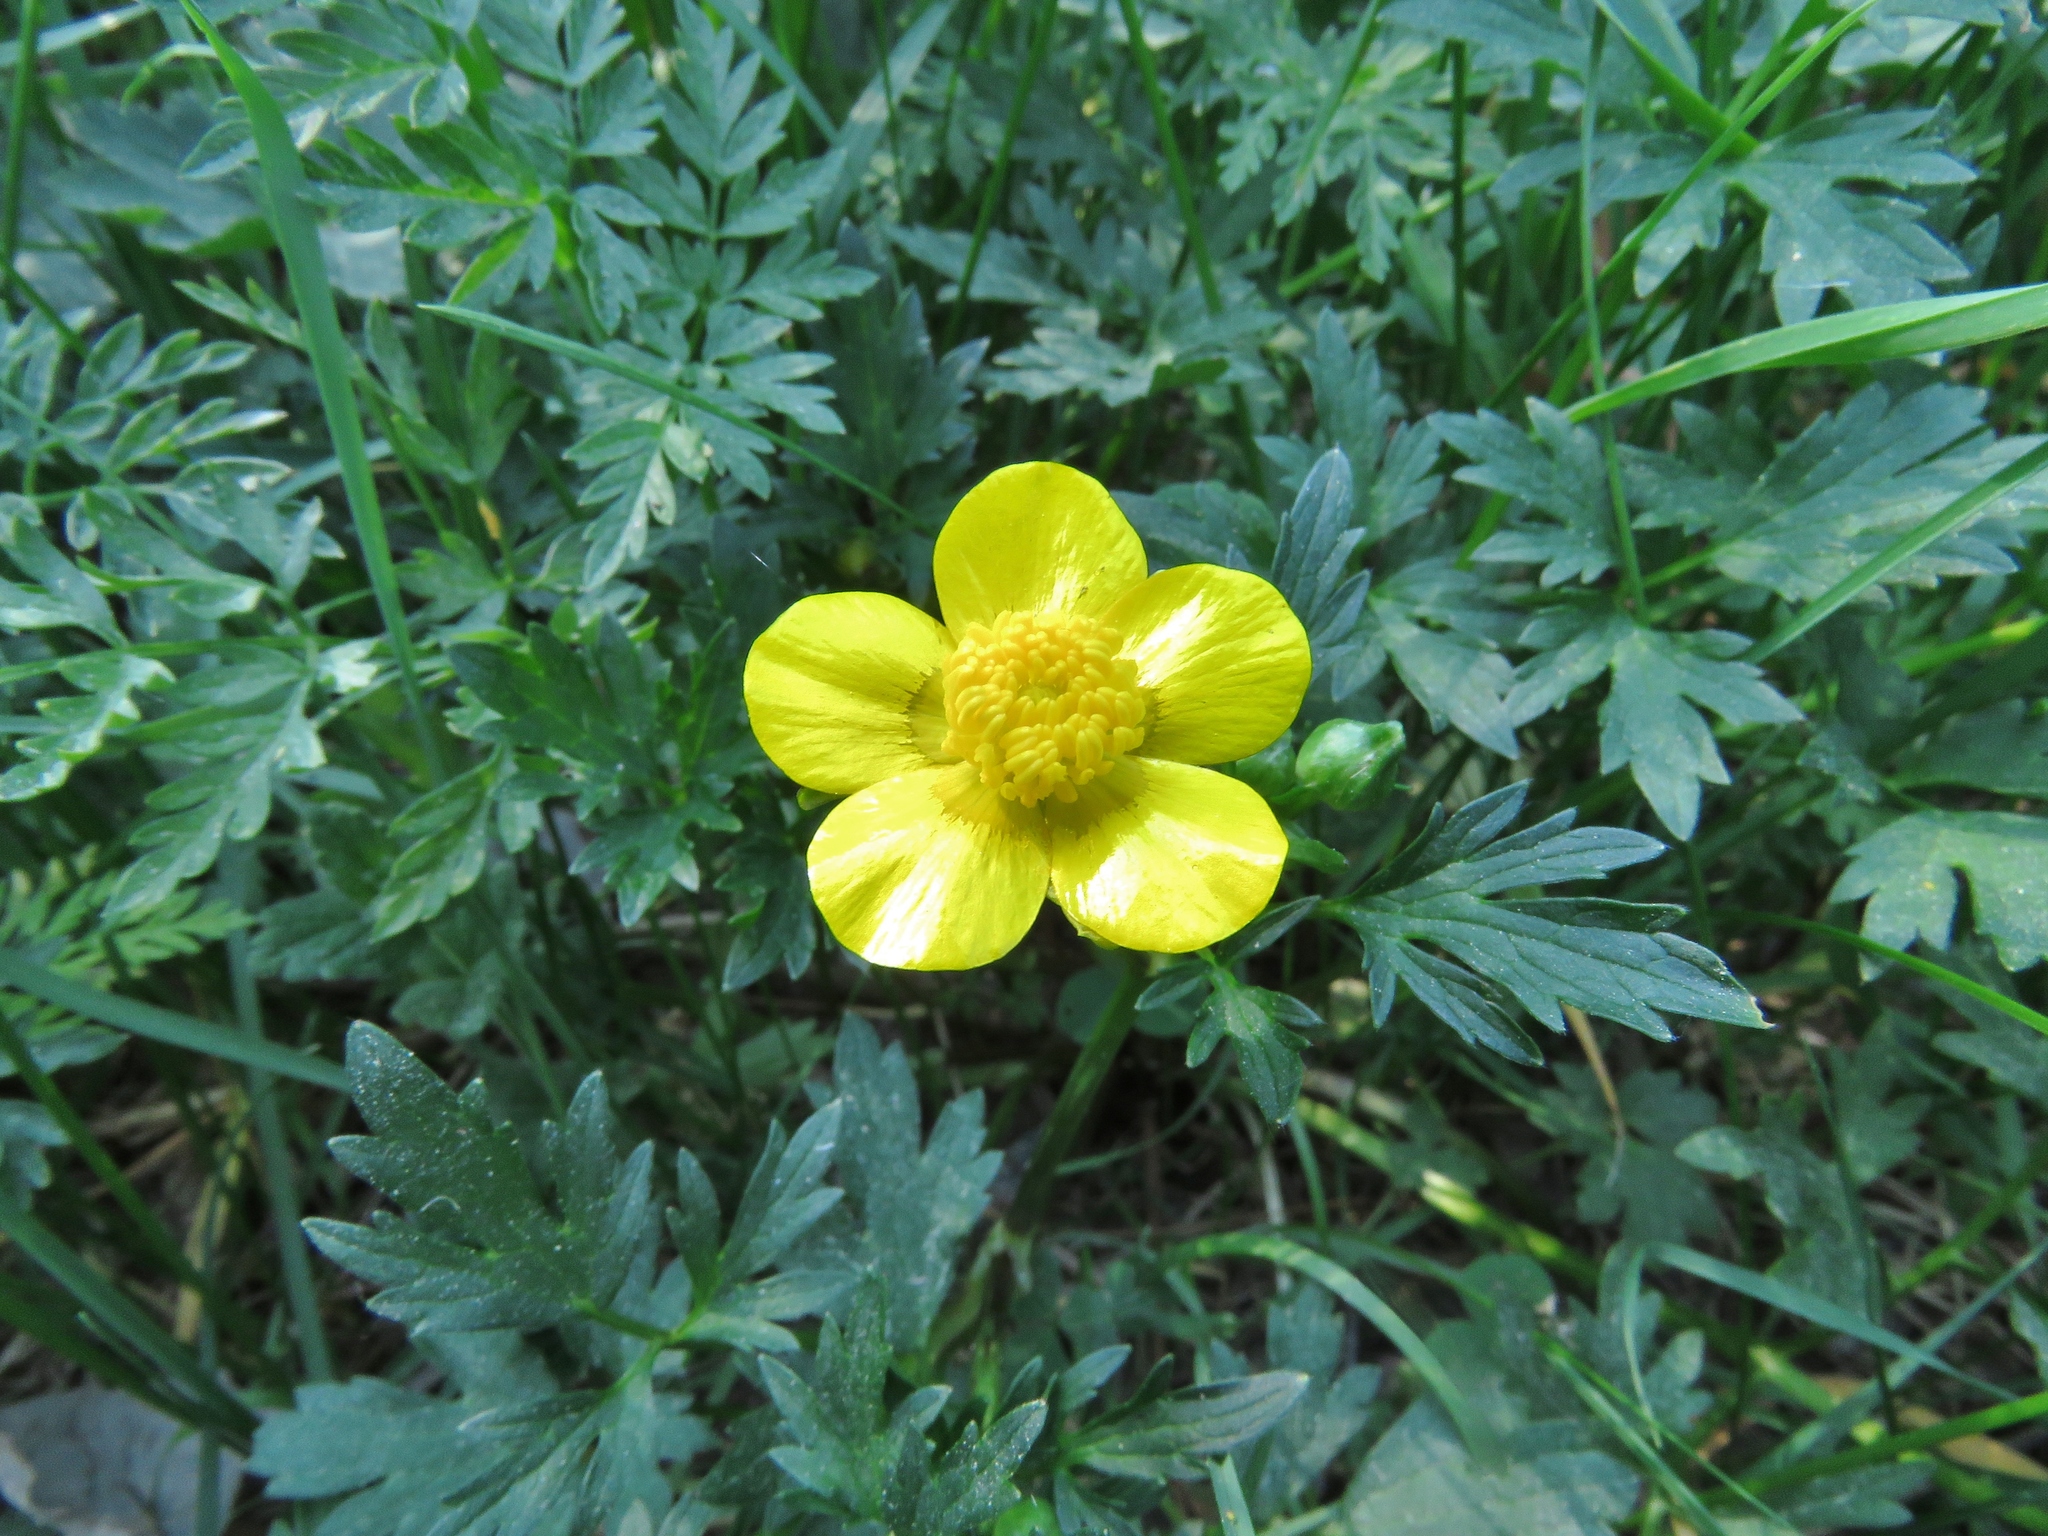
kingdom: Plantae
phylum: Tracheophyta
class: Magnoliopsida
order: Ranunculales
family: Ranunculaceae
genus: Ranunculus
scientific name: Ranunculus repens
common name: Creeping buttercup
